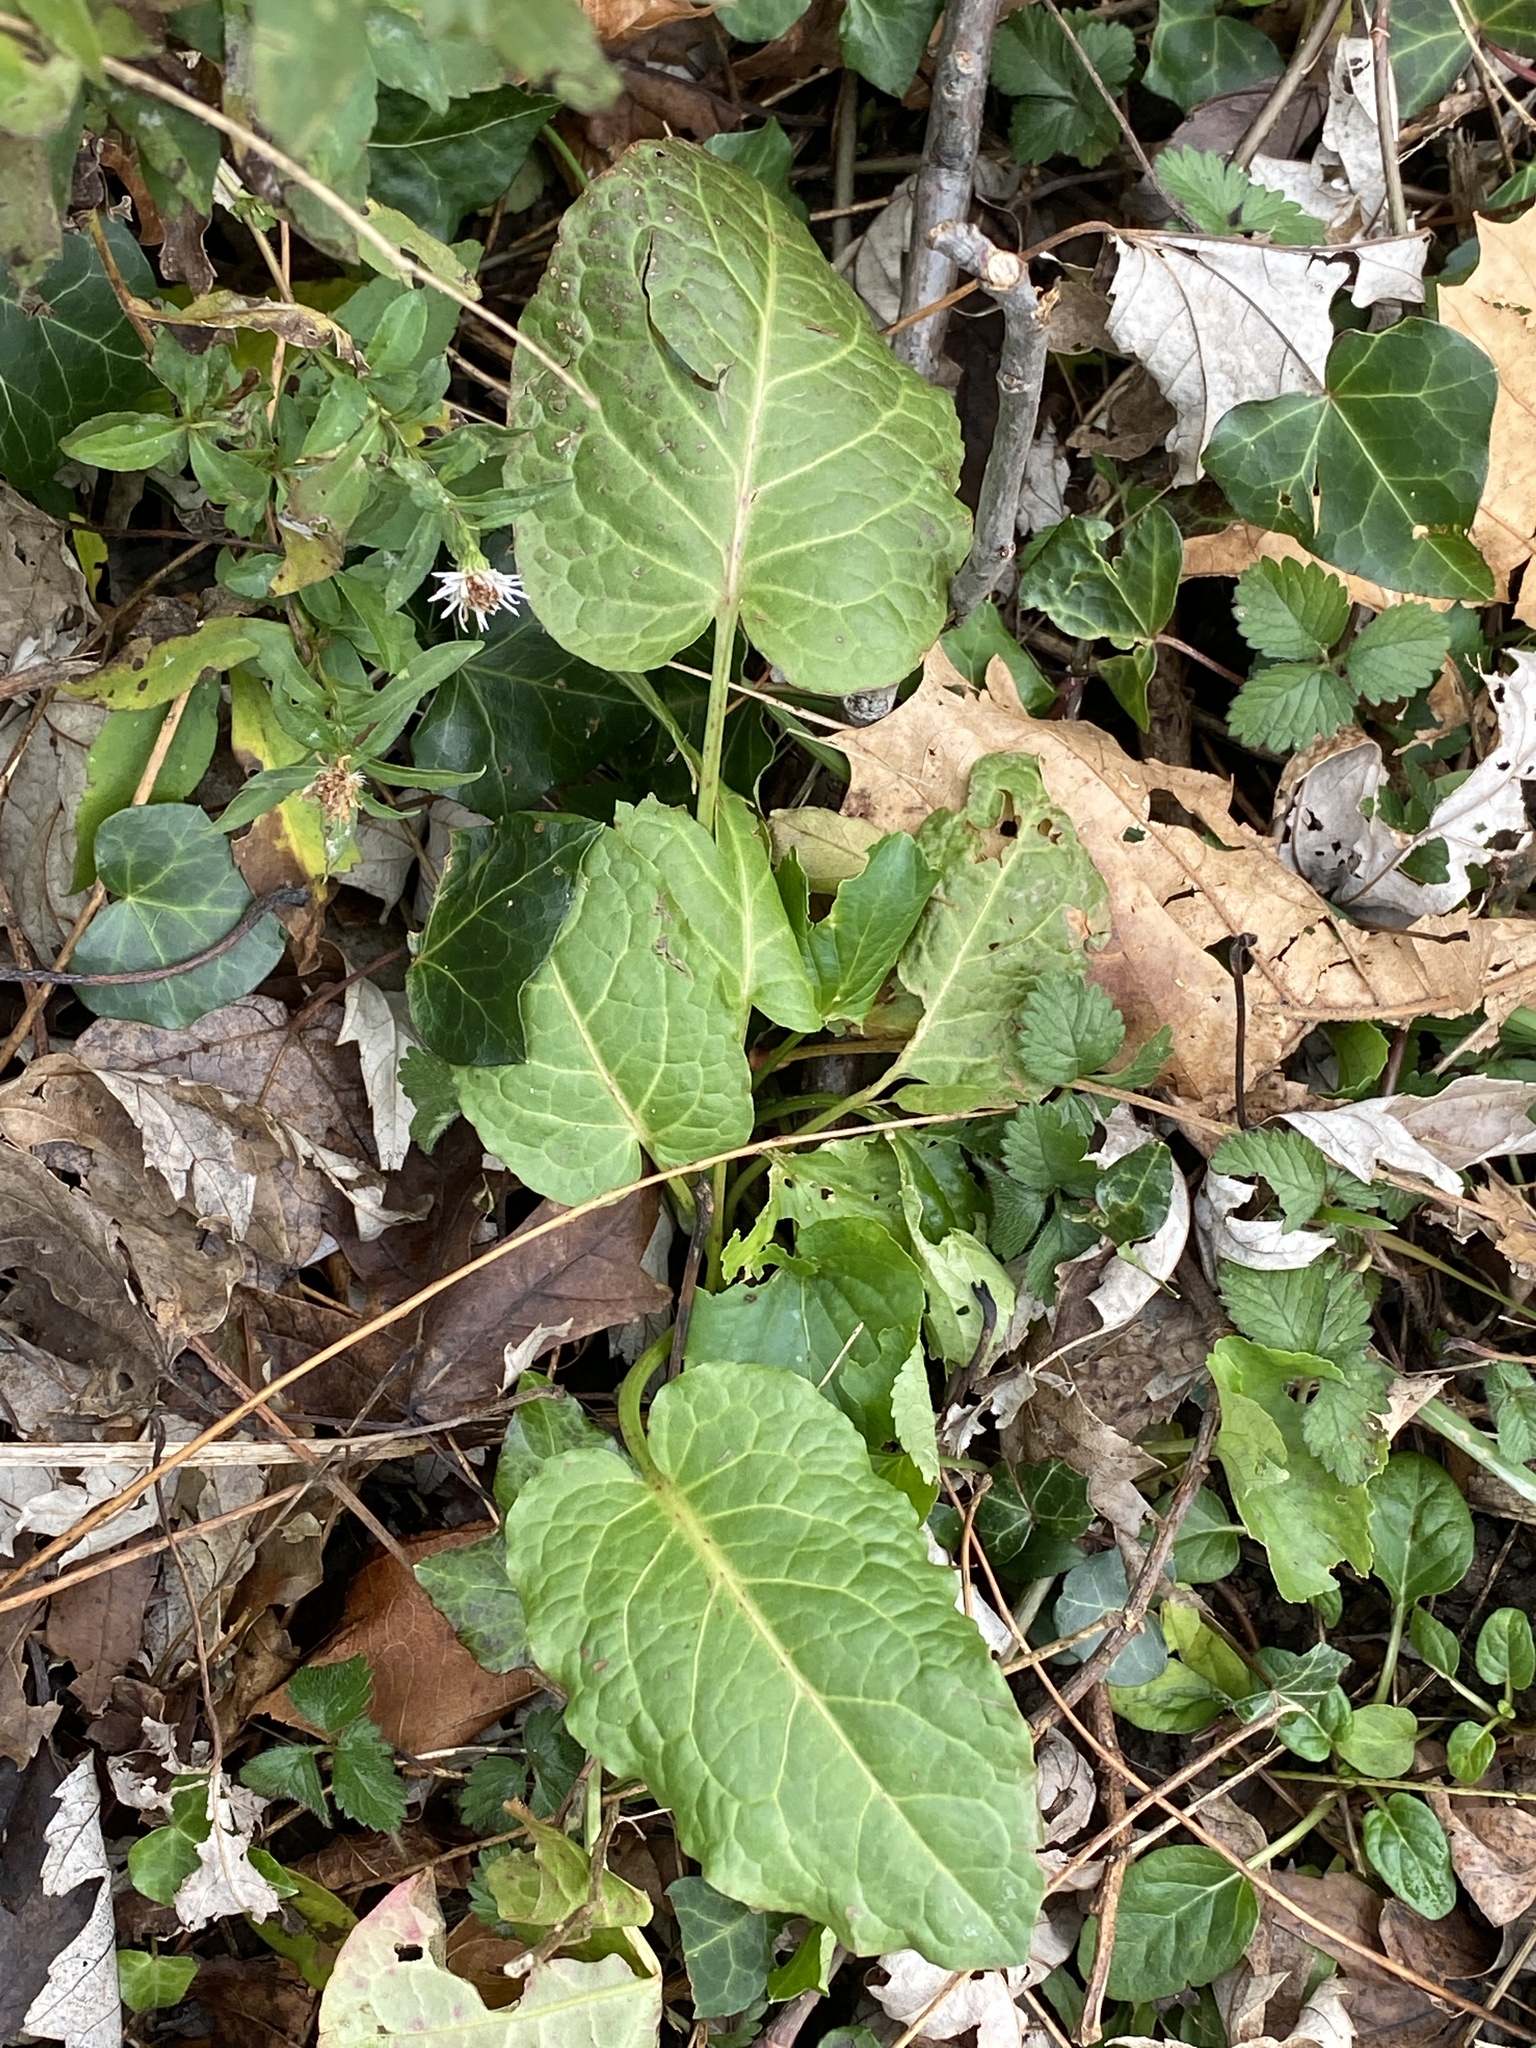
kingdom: Plantae
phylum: Tracheophyta
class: Magnoliopsida
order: Caryophyllales
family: Polygonaceae
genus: Rumex
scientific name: Rumex obtusifolius
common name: Bitter dock
